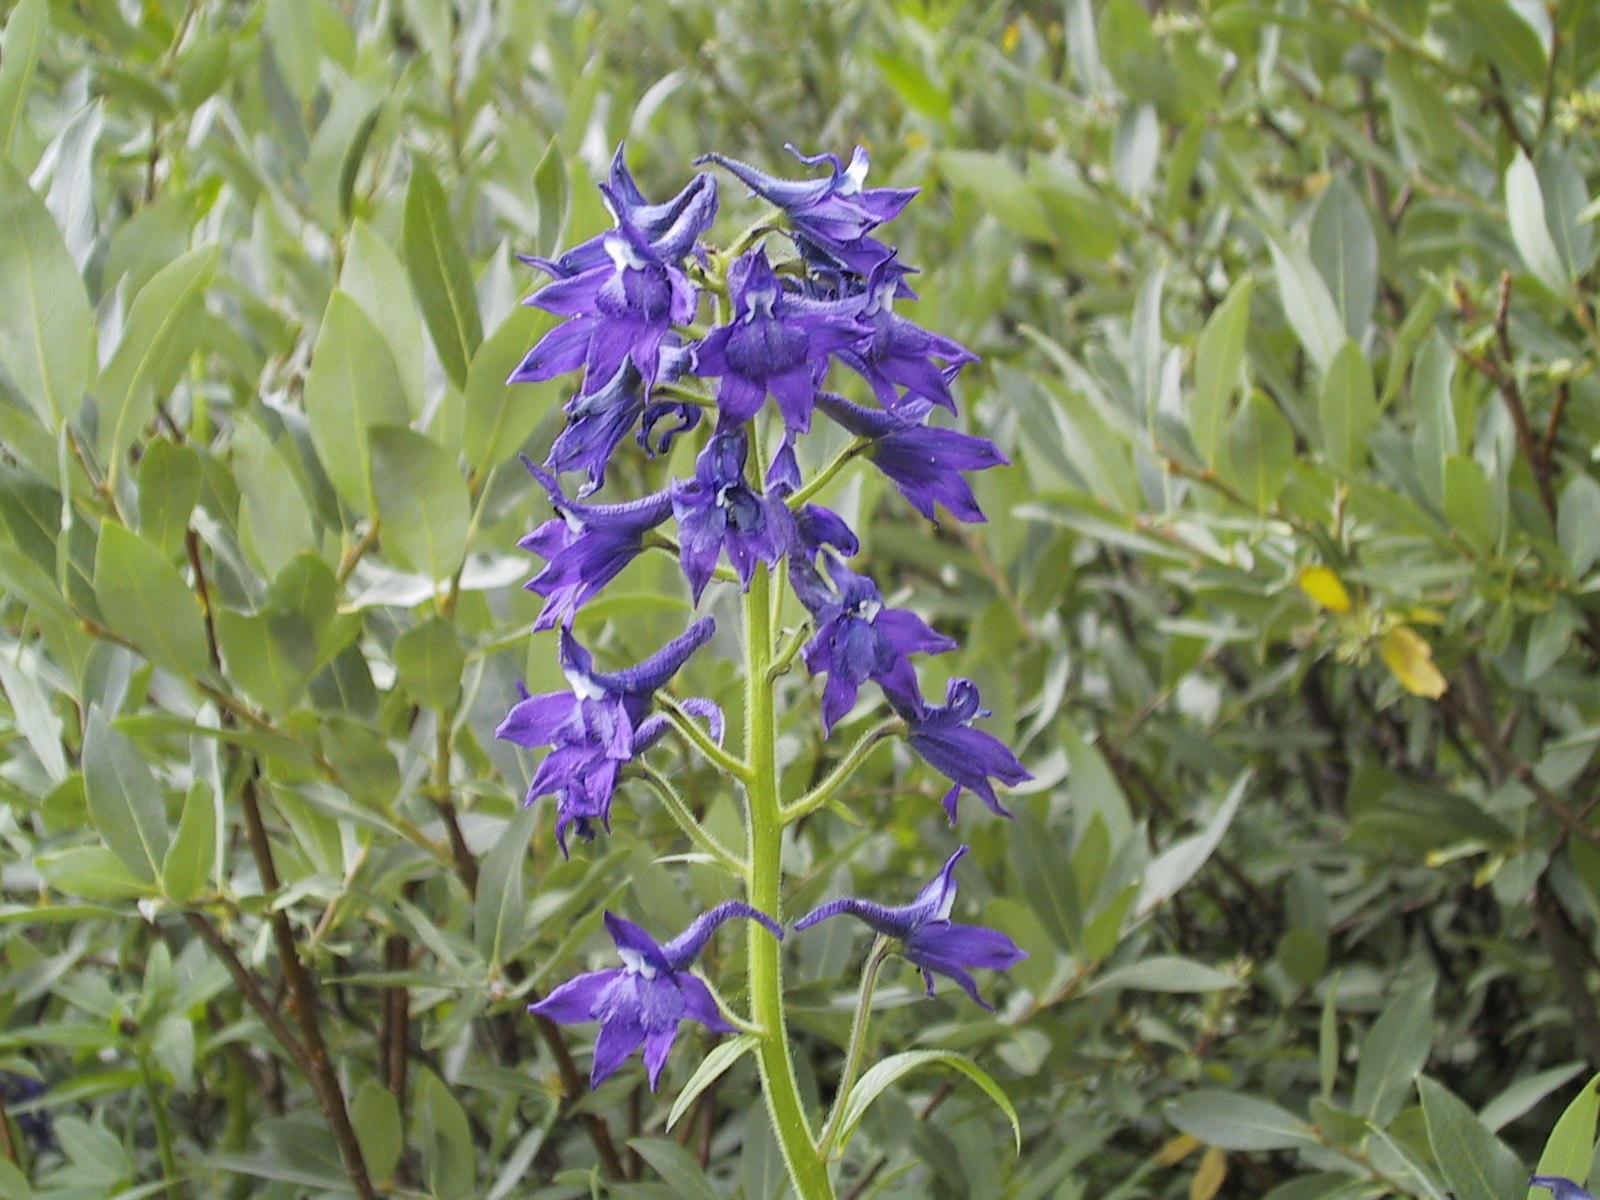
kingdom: Plantae
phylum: Tracheophyta
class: Magnoliopsida
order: Ranunculales
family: Ranunculaceae
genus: Delphinium
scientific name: Delphinium barbeyi
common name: Subalpine larkspur
